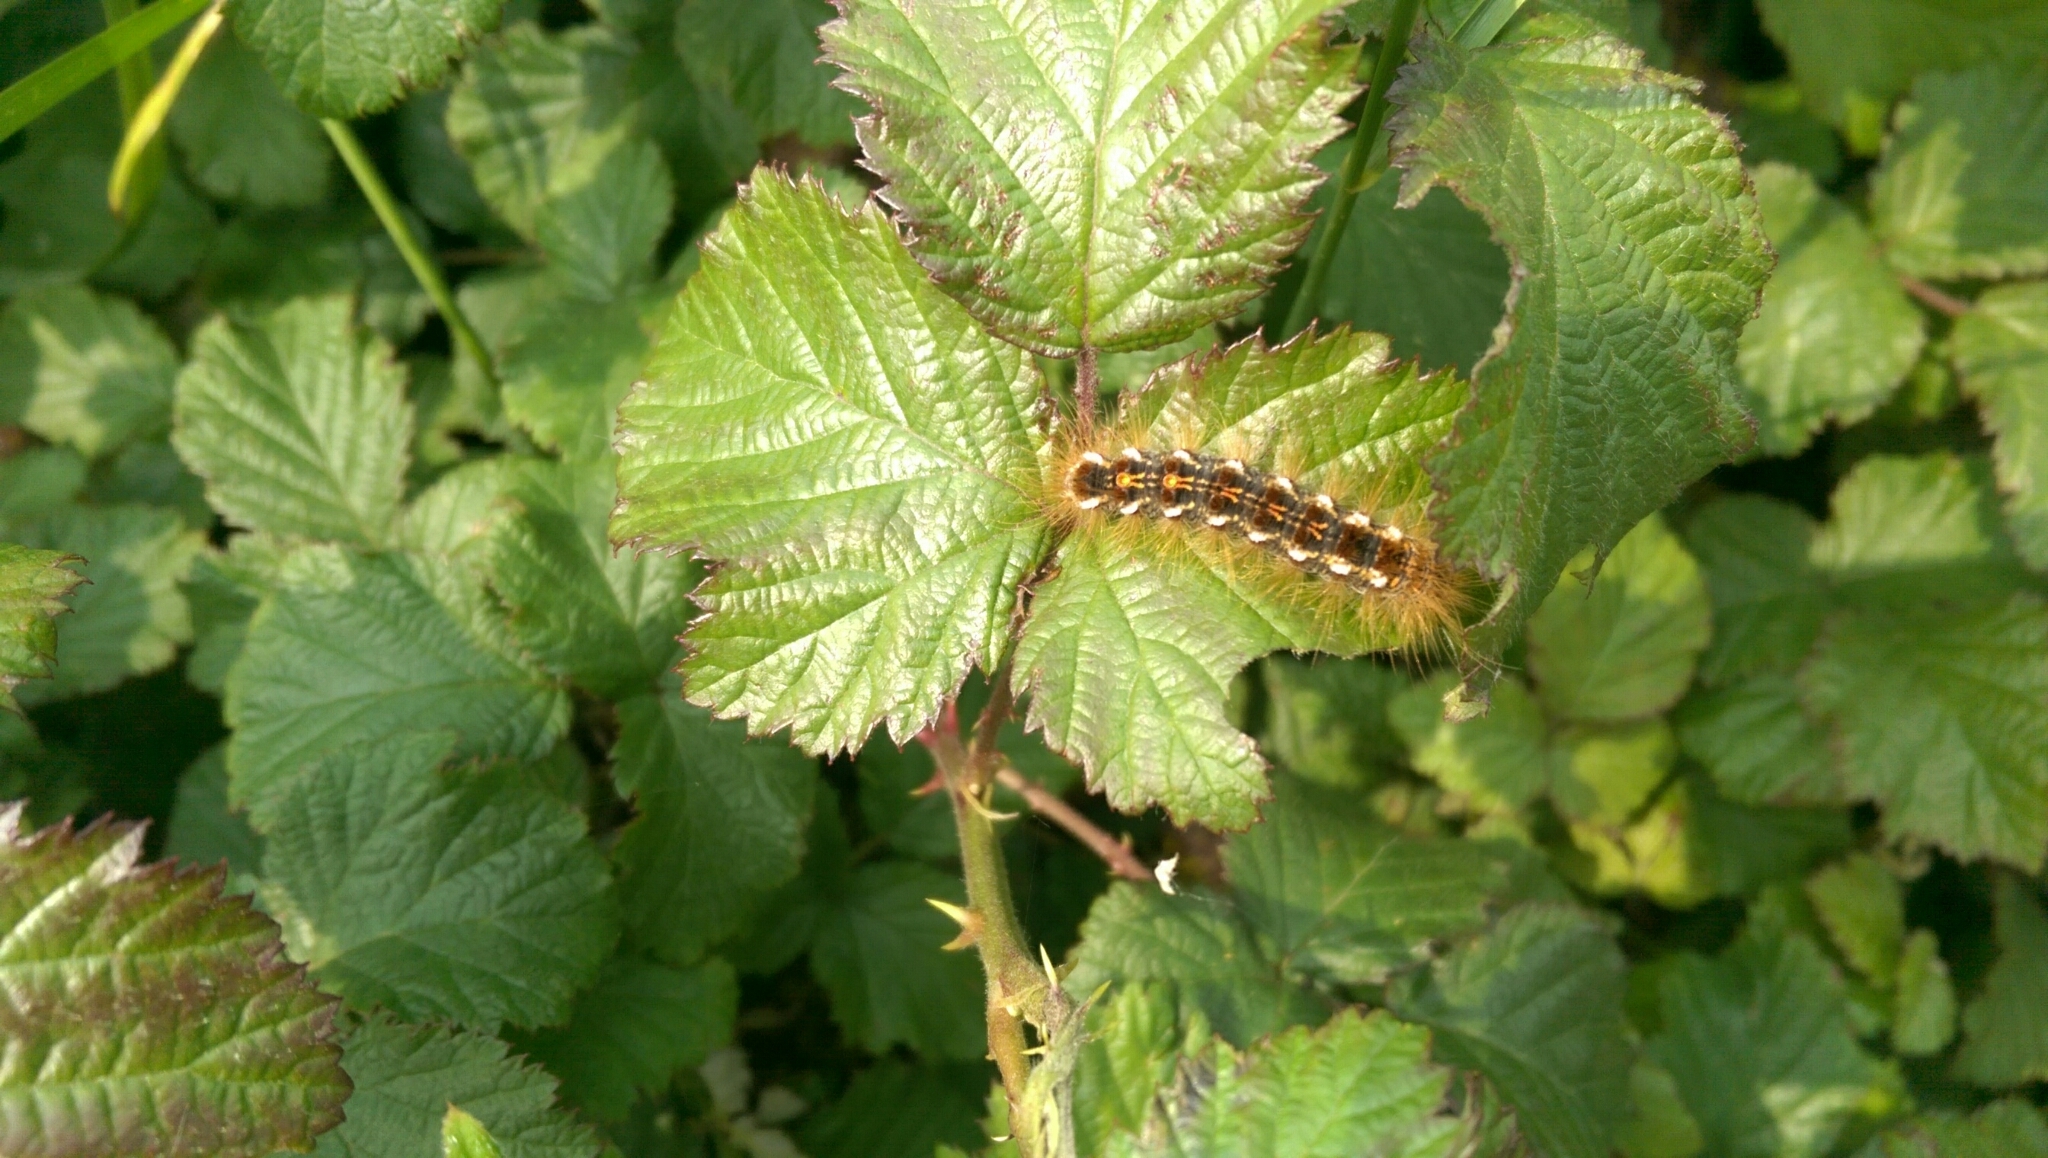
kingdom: Animalia
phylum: Arthropoda
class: Insecta
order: Lepidoptera
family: Erebidae
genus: Euproctis
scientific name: Euproctis chrysorrhoea
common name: Brown-tail
